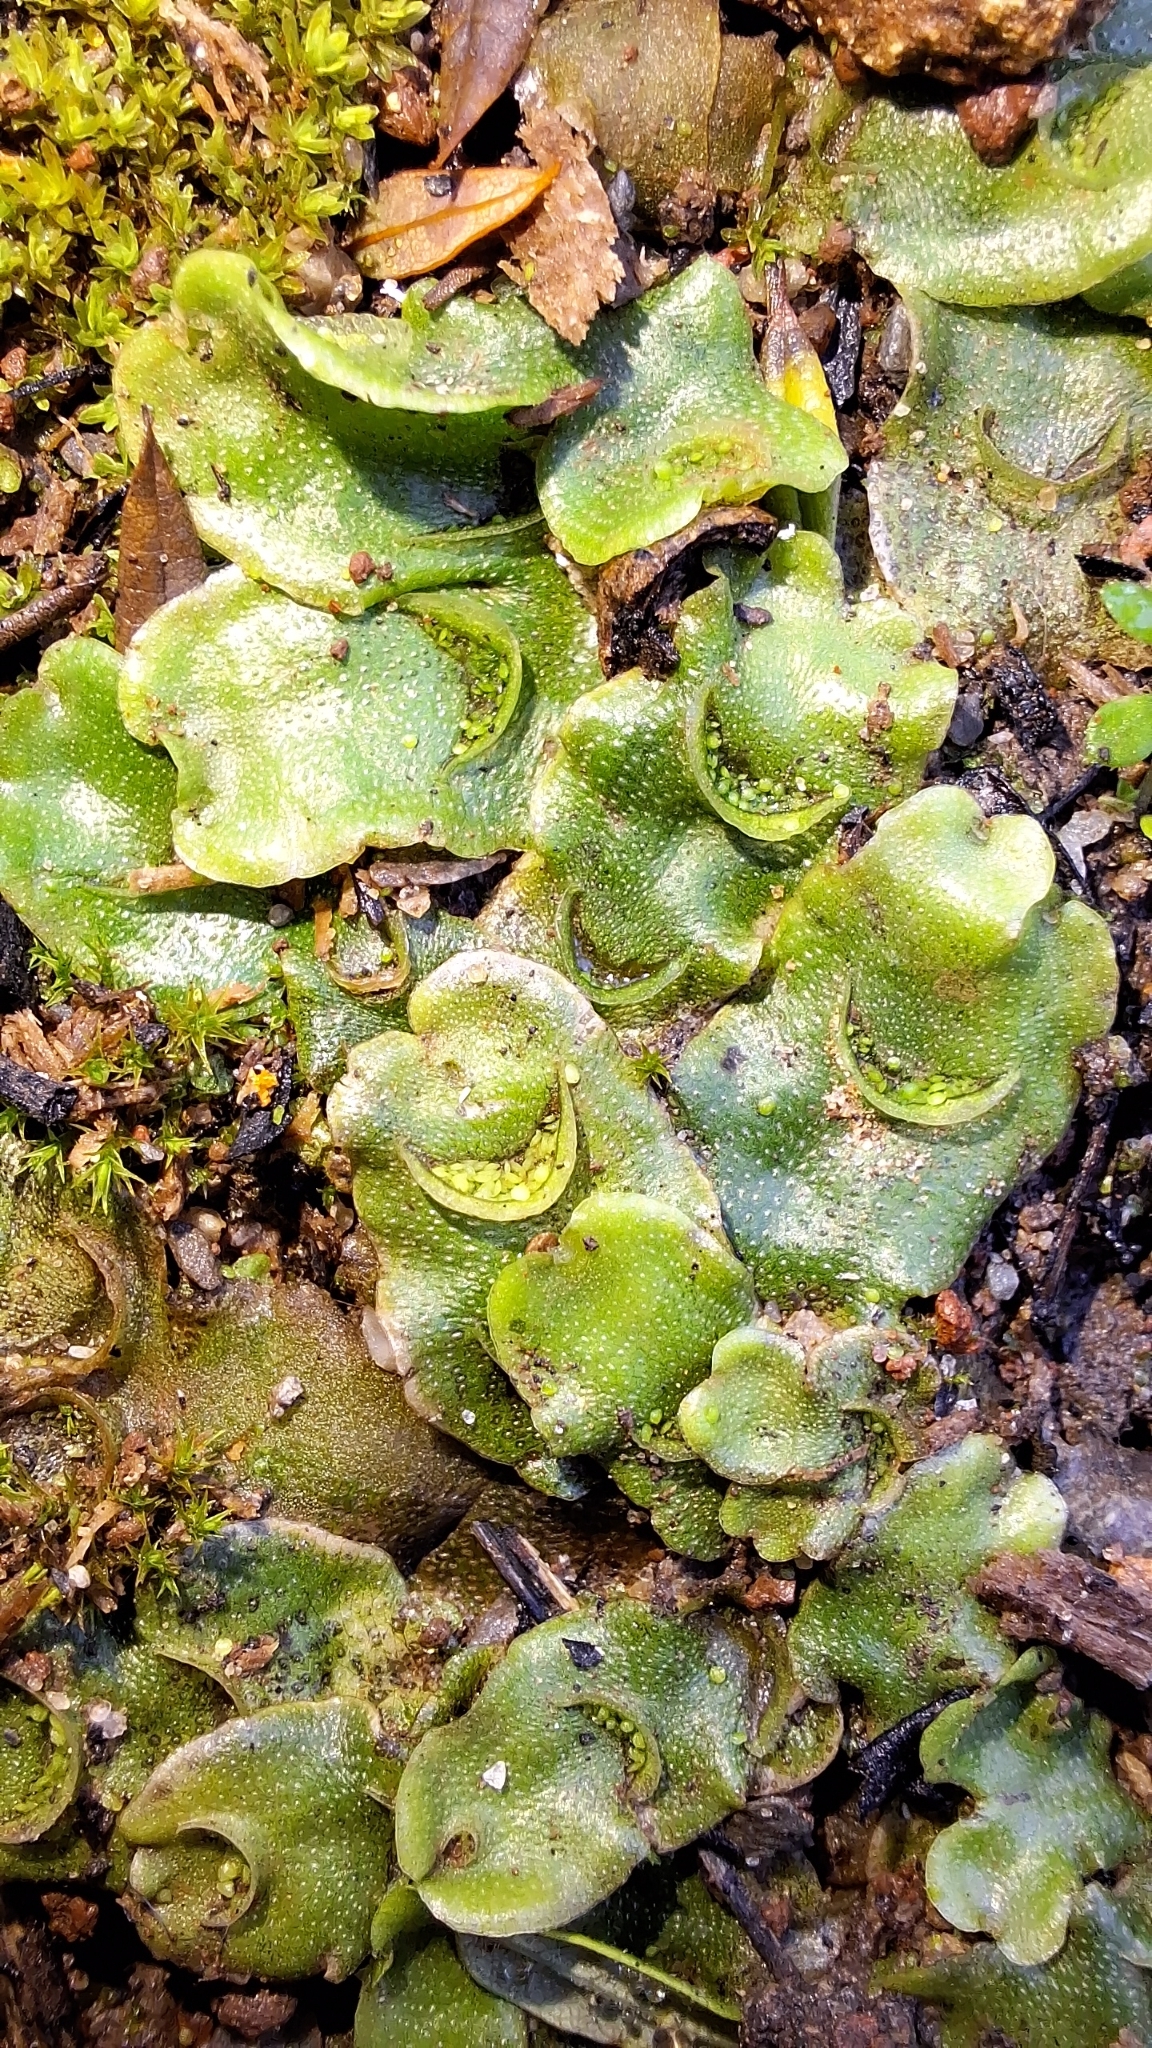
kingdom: Plantae
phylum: Marchantiophyta
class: Marchantiopsida
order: Lunulariales
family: Lunulariaceae
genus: Lunularia
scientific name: Lunularia cruciata
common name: Crescent-cup liverwort
